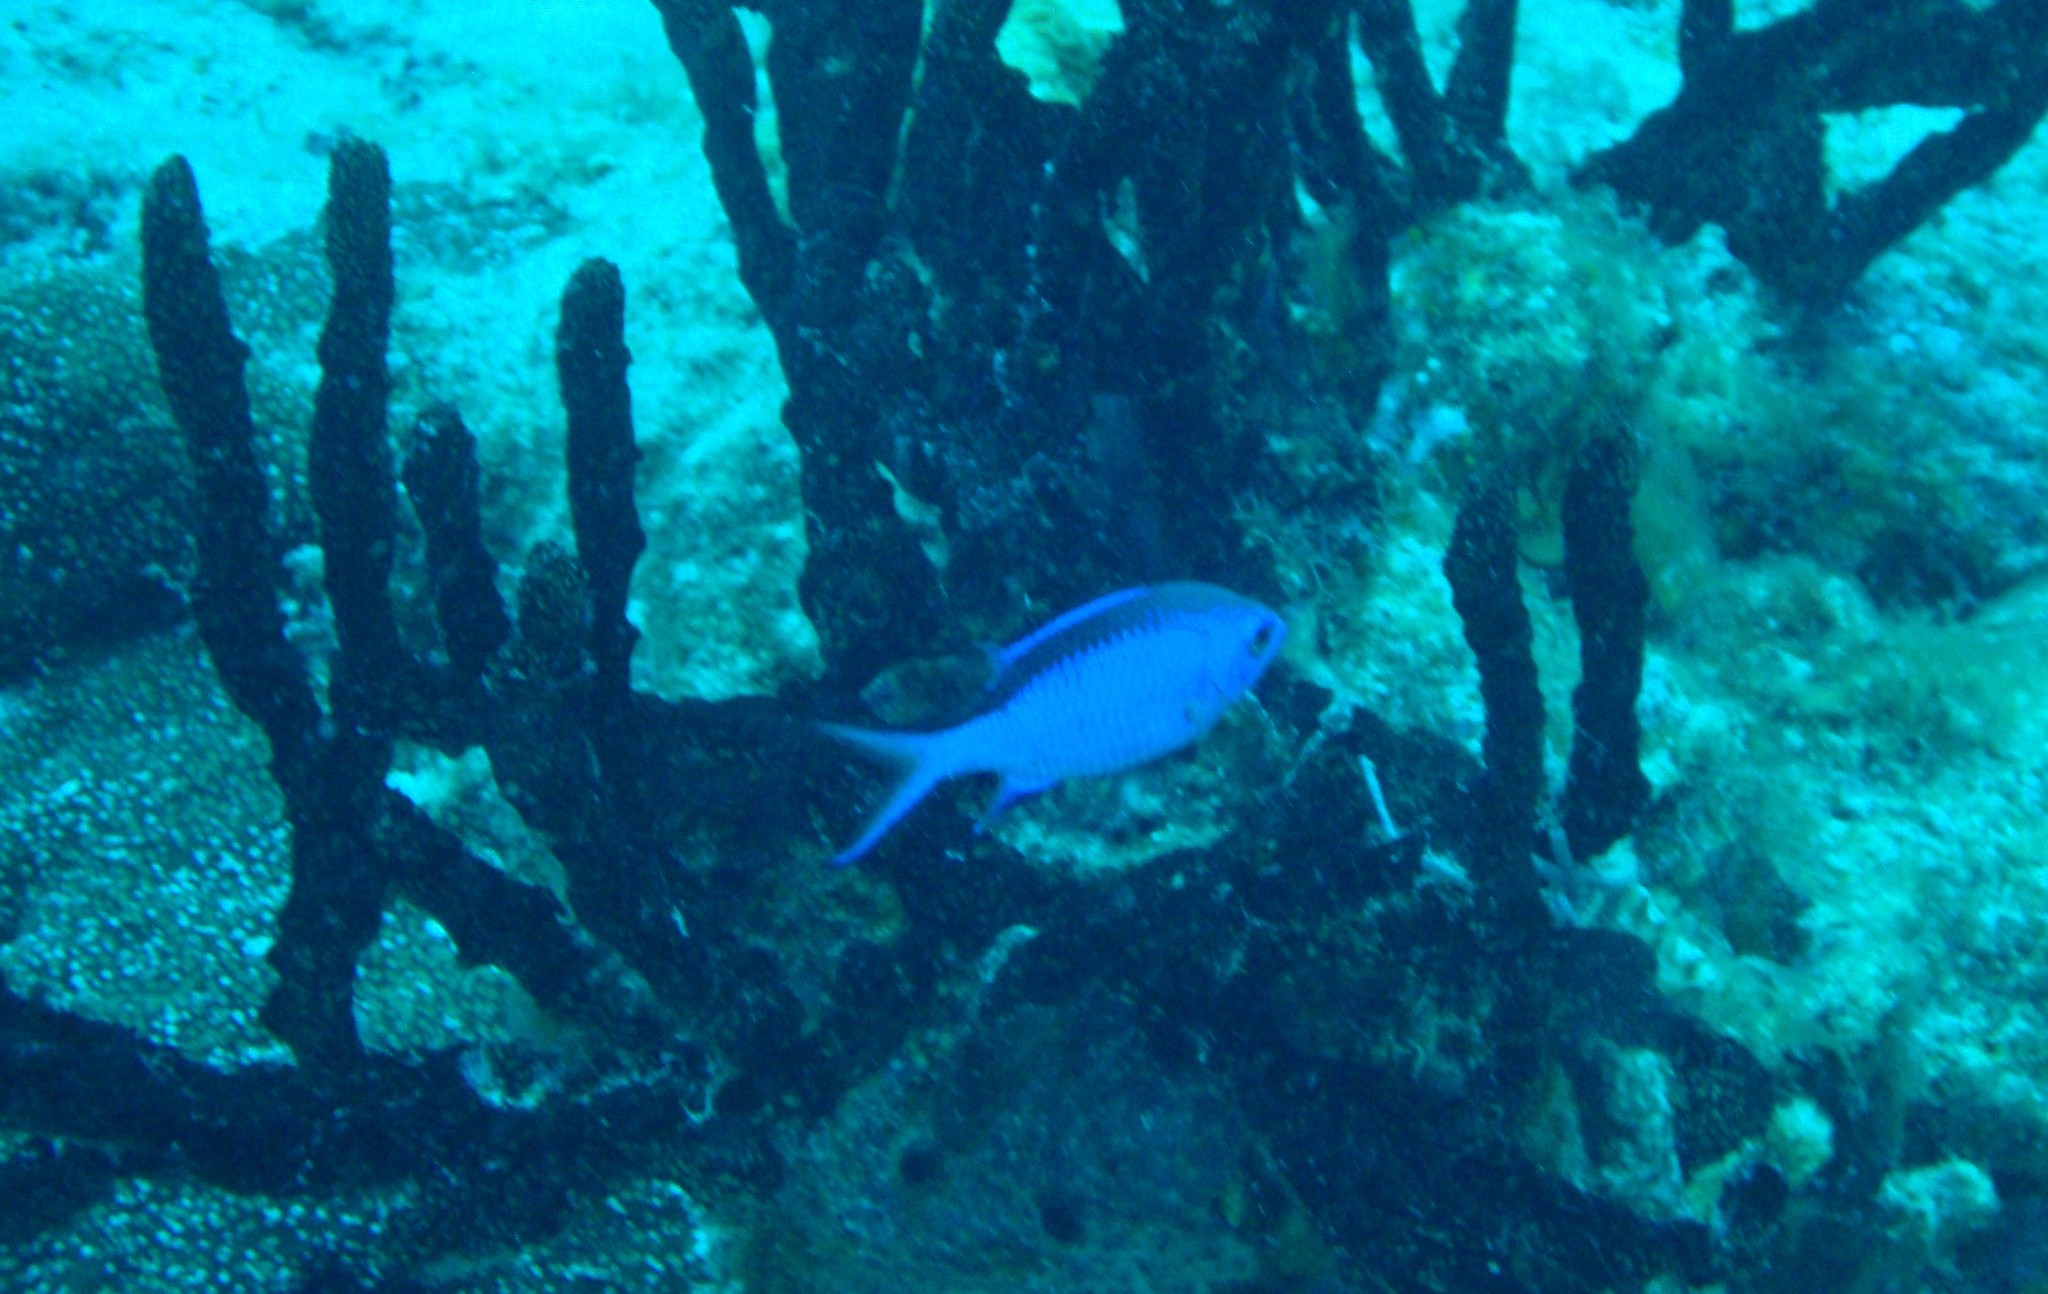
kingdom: Animalia
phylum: Chordata
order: Perciformes
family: Pomacentridae
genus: Chromis
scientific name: Chromis cyanea
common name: Blue chromis
